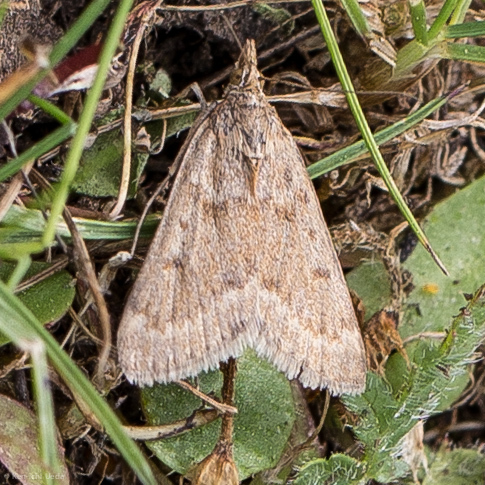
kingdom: Animalia
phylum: Arthropoda
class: Insecta
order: Lepidoptera
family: Crambidae
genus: Achyra
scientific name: Achyra occidentalis
